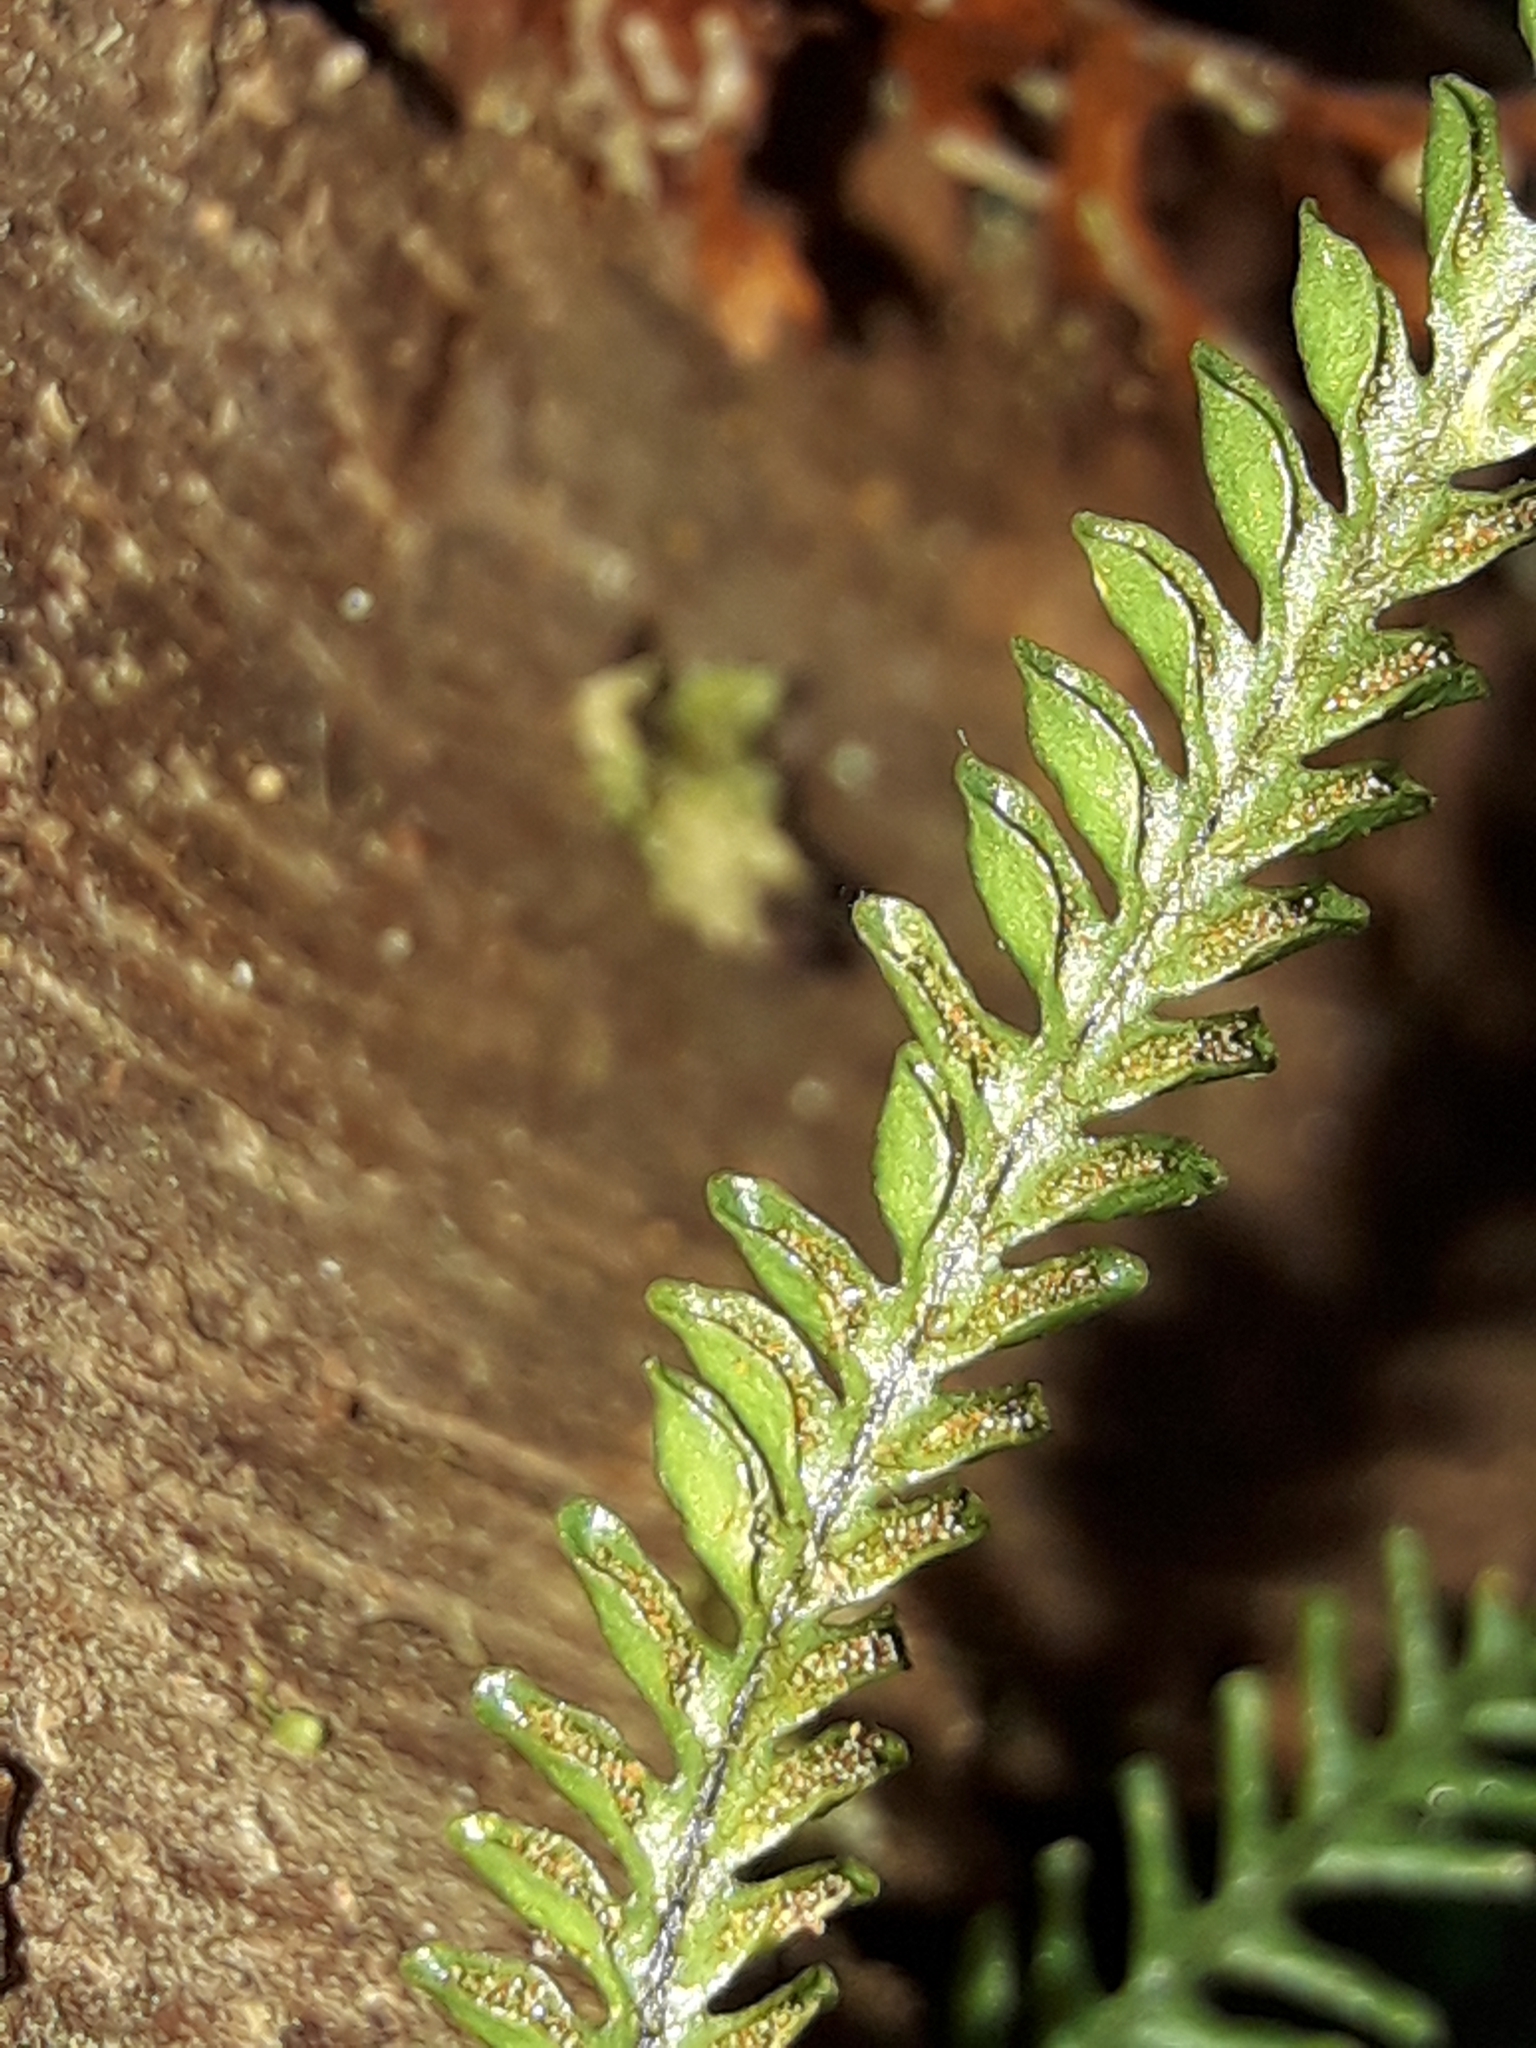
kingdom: Plantae
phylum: Tracheophyta
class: Polypodiopsida
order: Polypodiales
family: Polypodiaceae
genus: Calymmodon
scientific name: Calymmodon cucullatus
